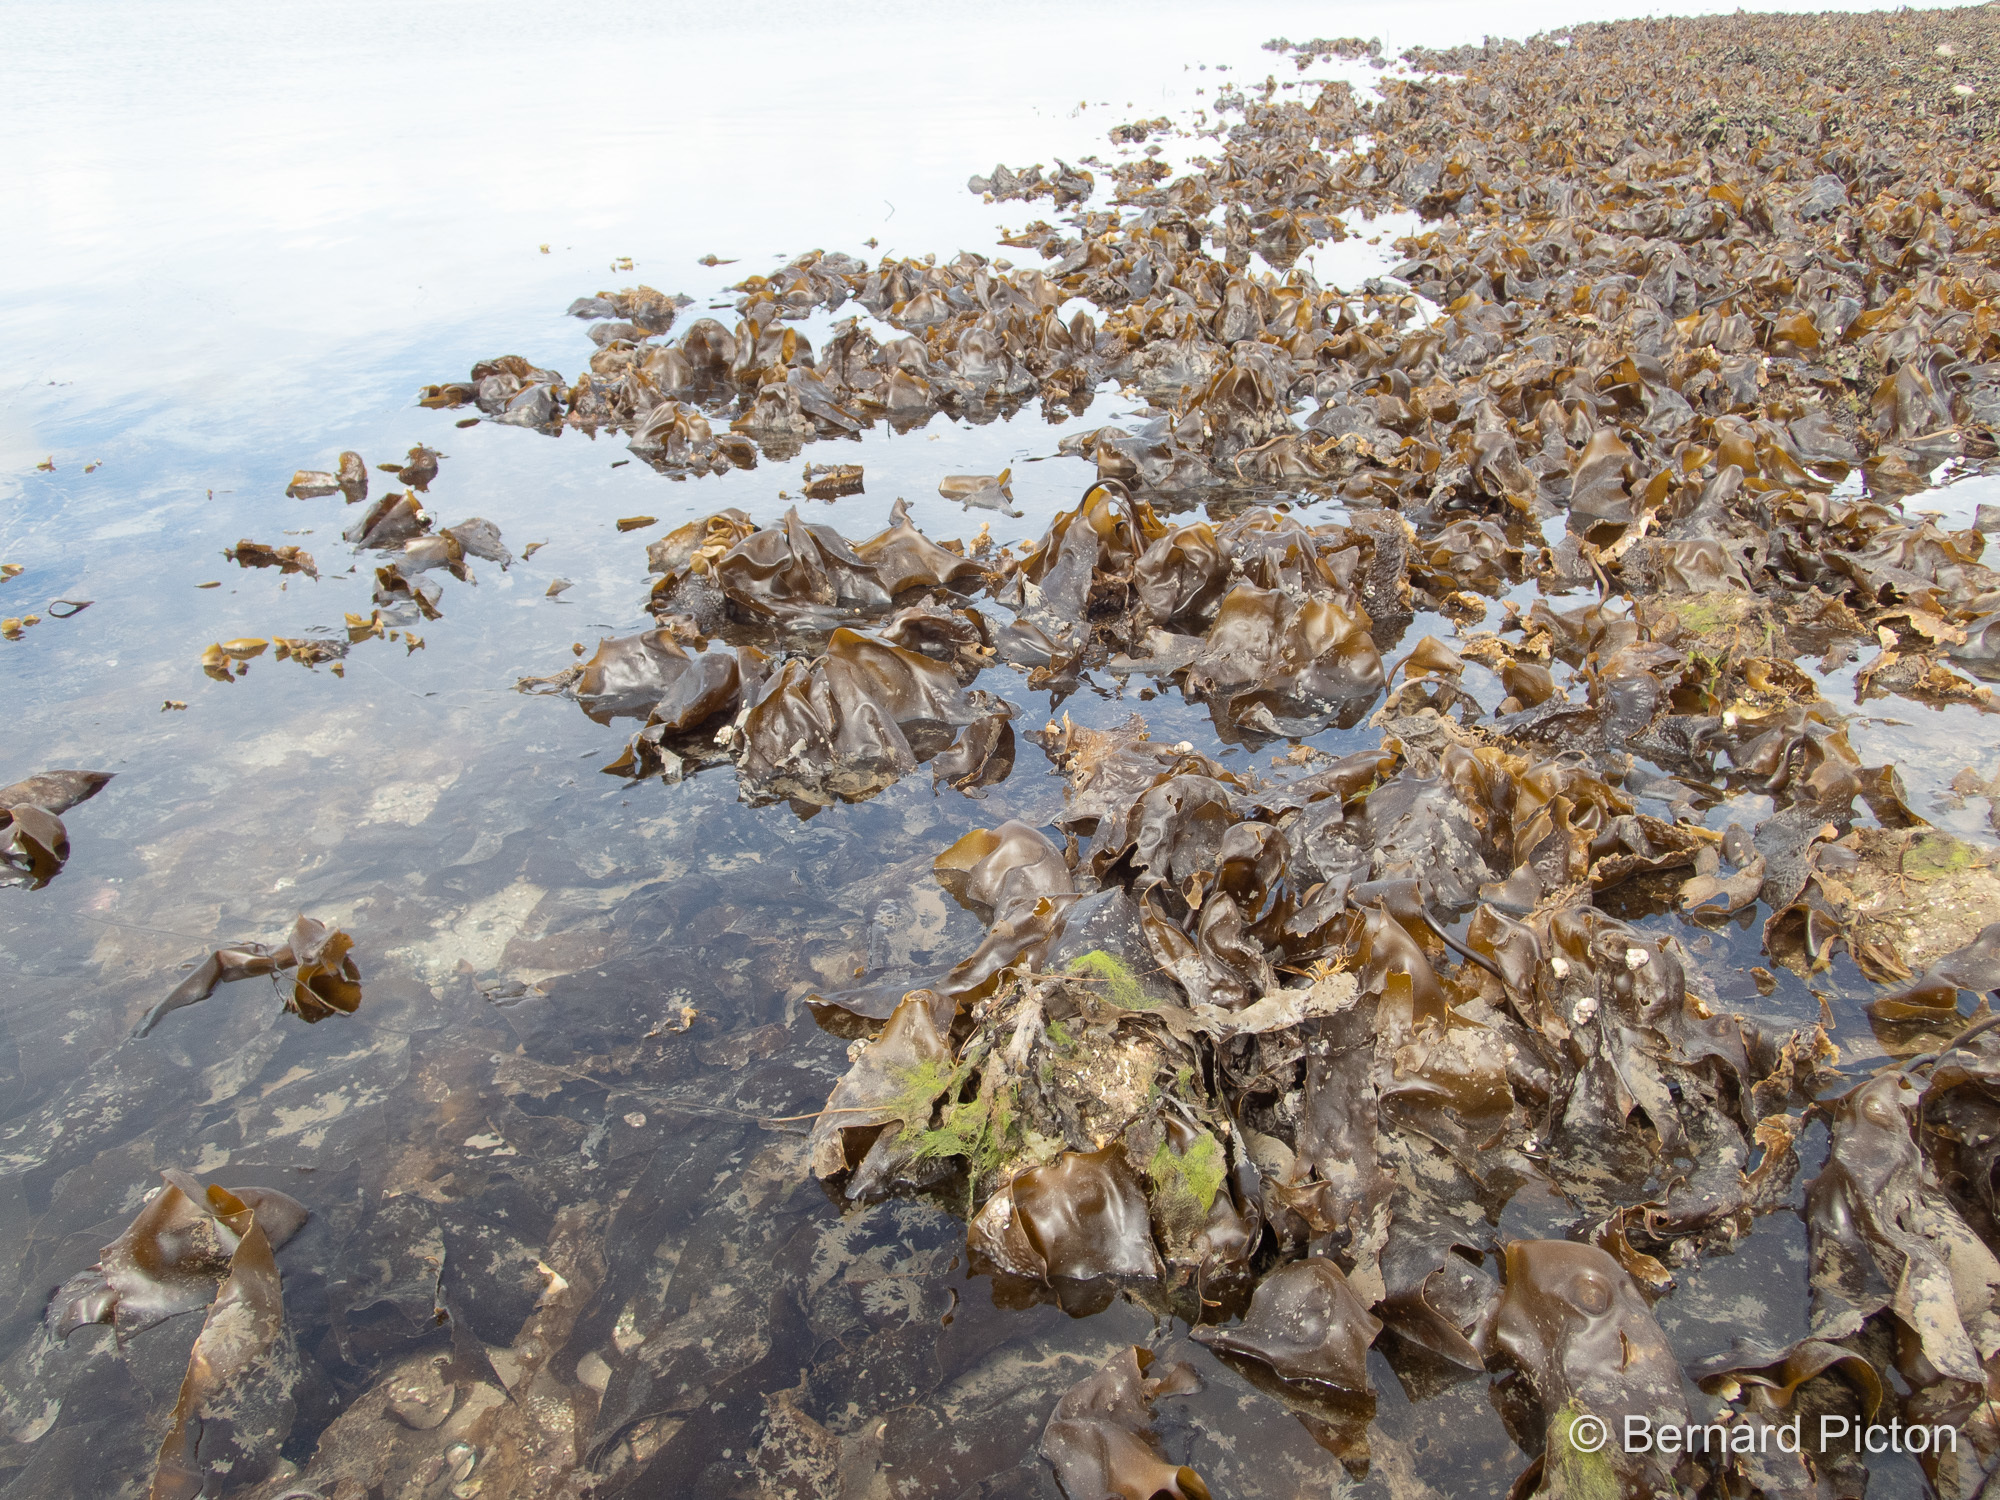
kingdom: Chromista
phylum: Ochrophyta
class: Phaeophyceae
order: Laminariales
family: Laminariaceae
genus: Saccharina
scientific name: Saccharina latissima
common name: Poor man's weather glass
